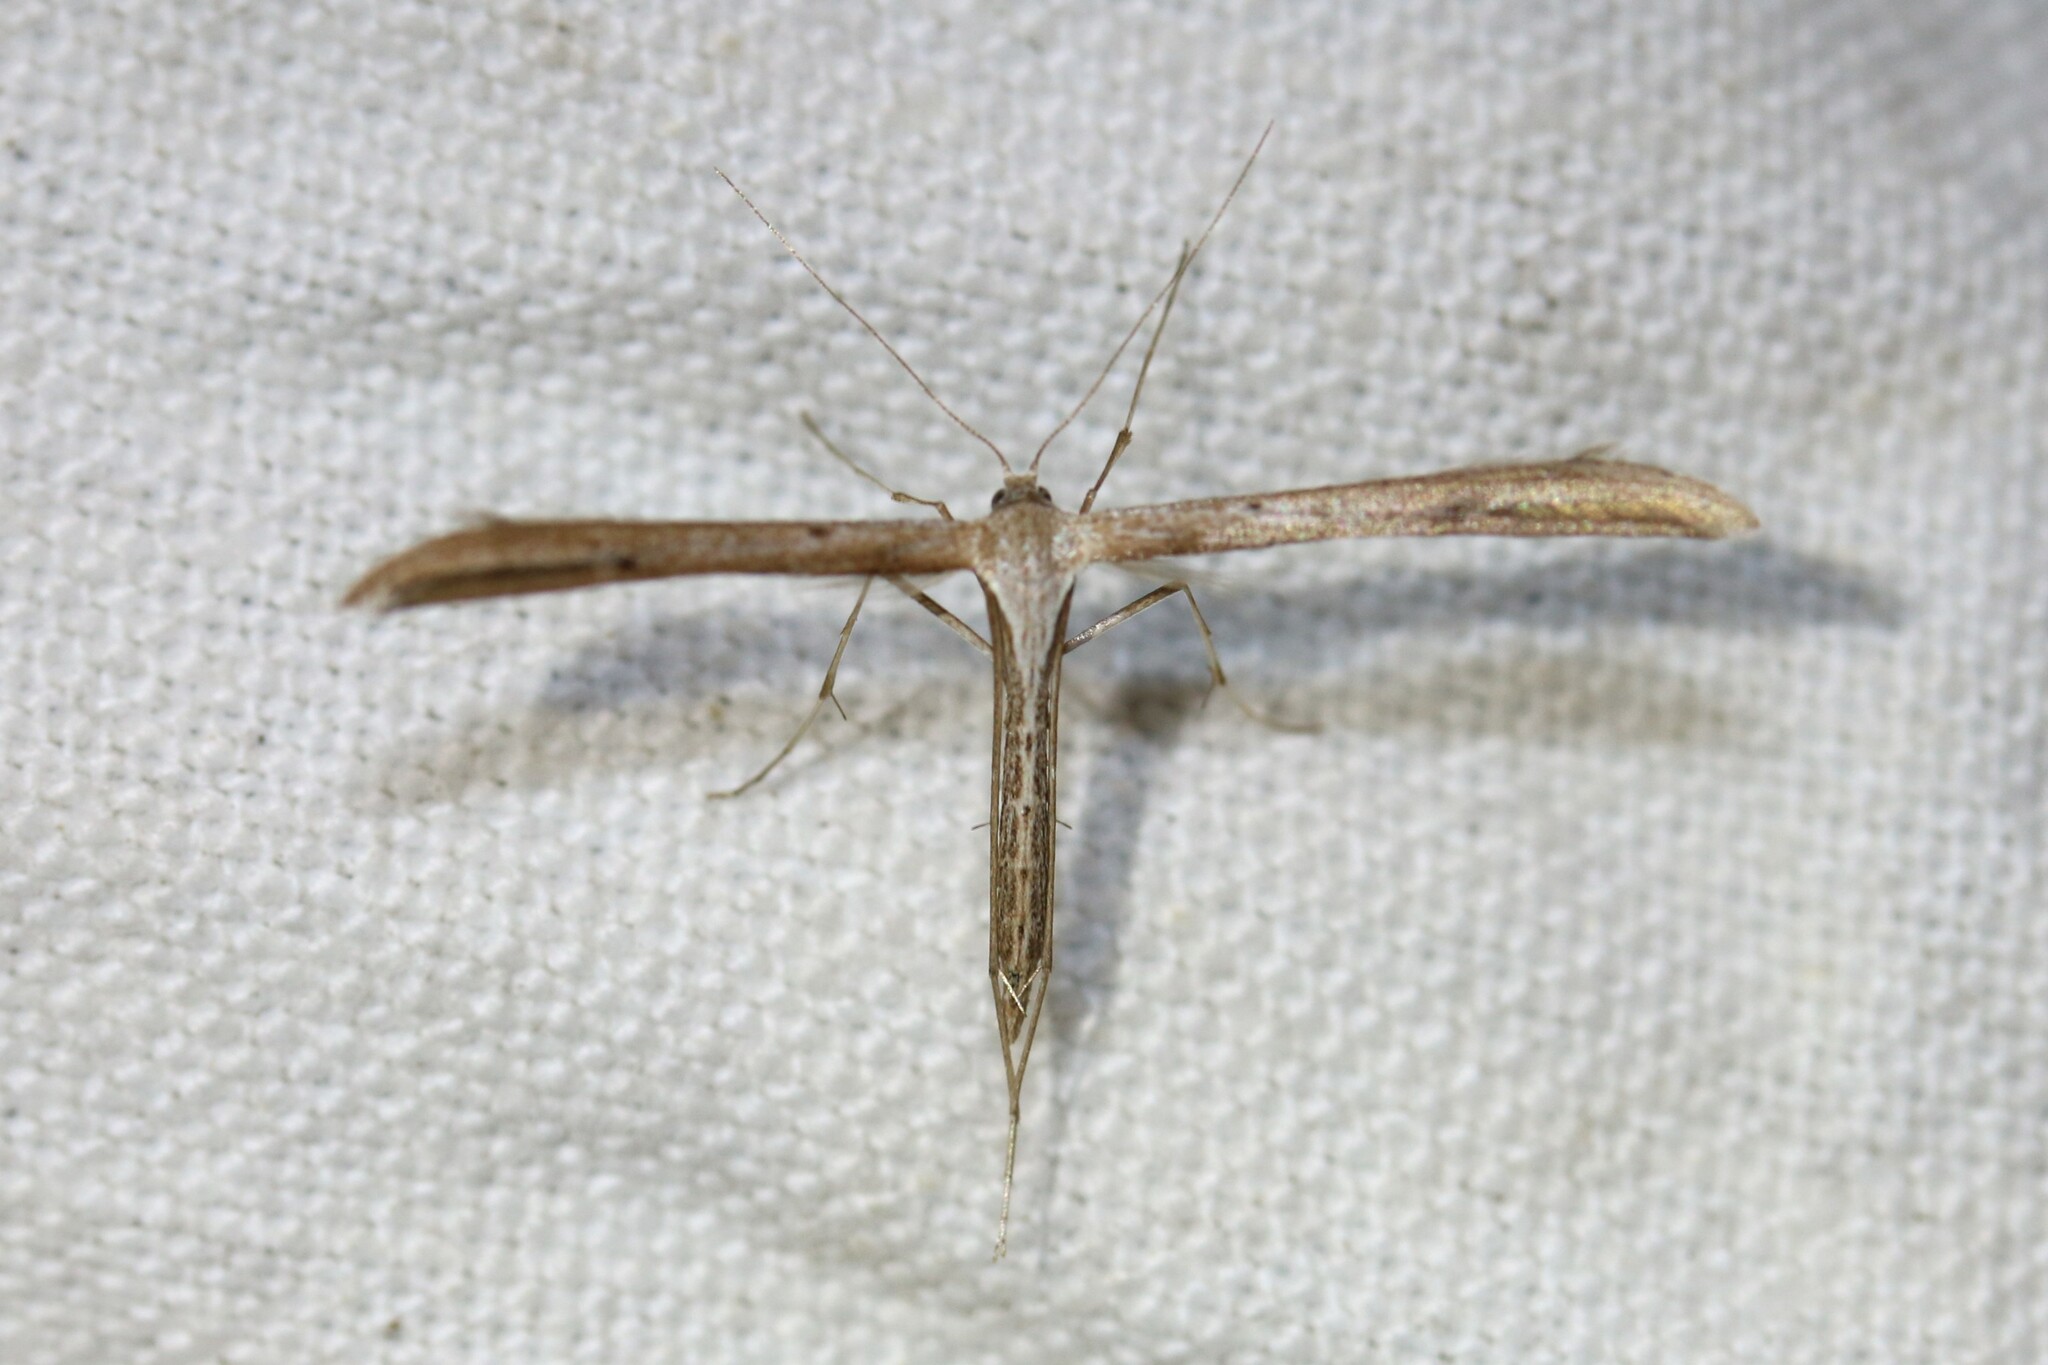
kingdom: Animalia
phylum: Arthropoda
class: Insecta
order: Lepidoptera
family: Pterophoridae
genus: Emmelina
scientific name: Emmelina monodactyla
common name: Common plume
